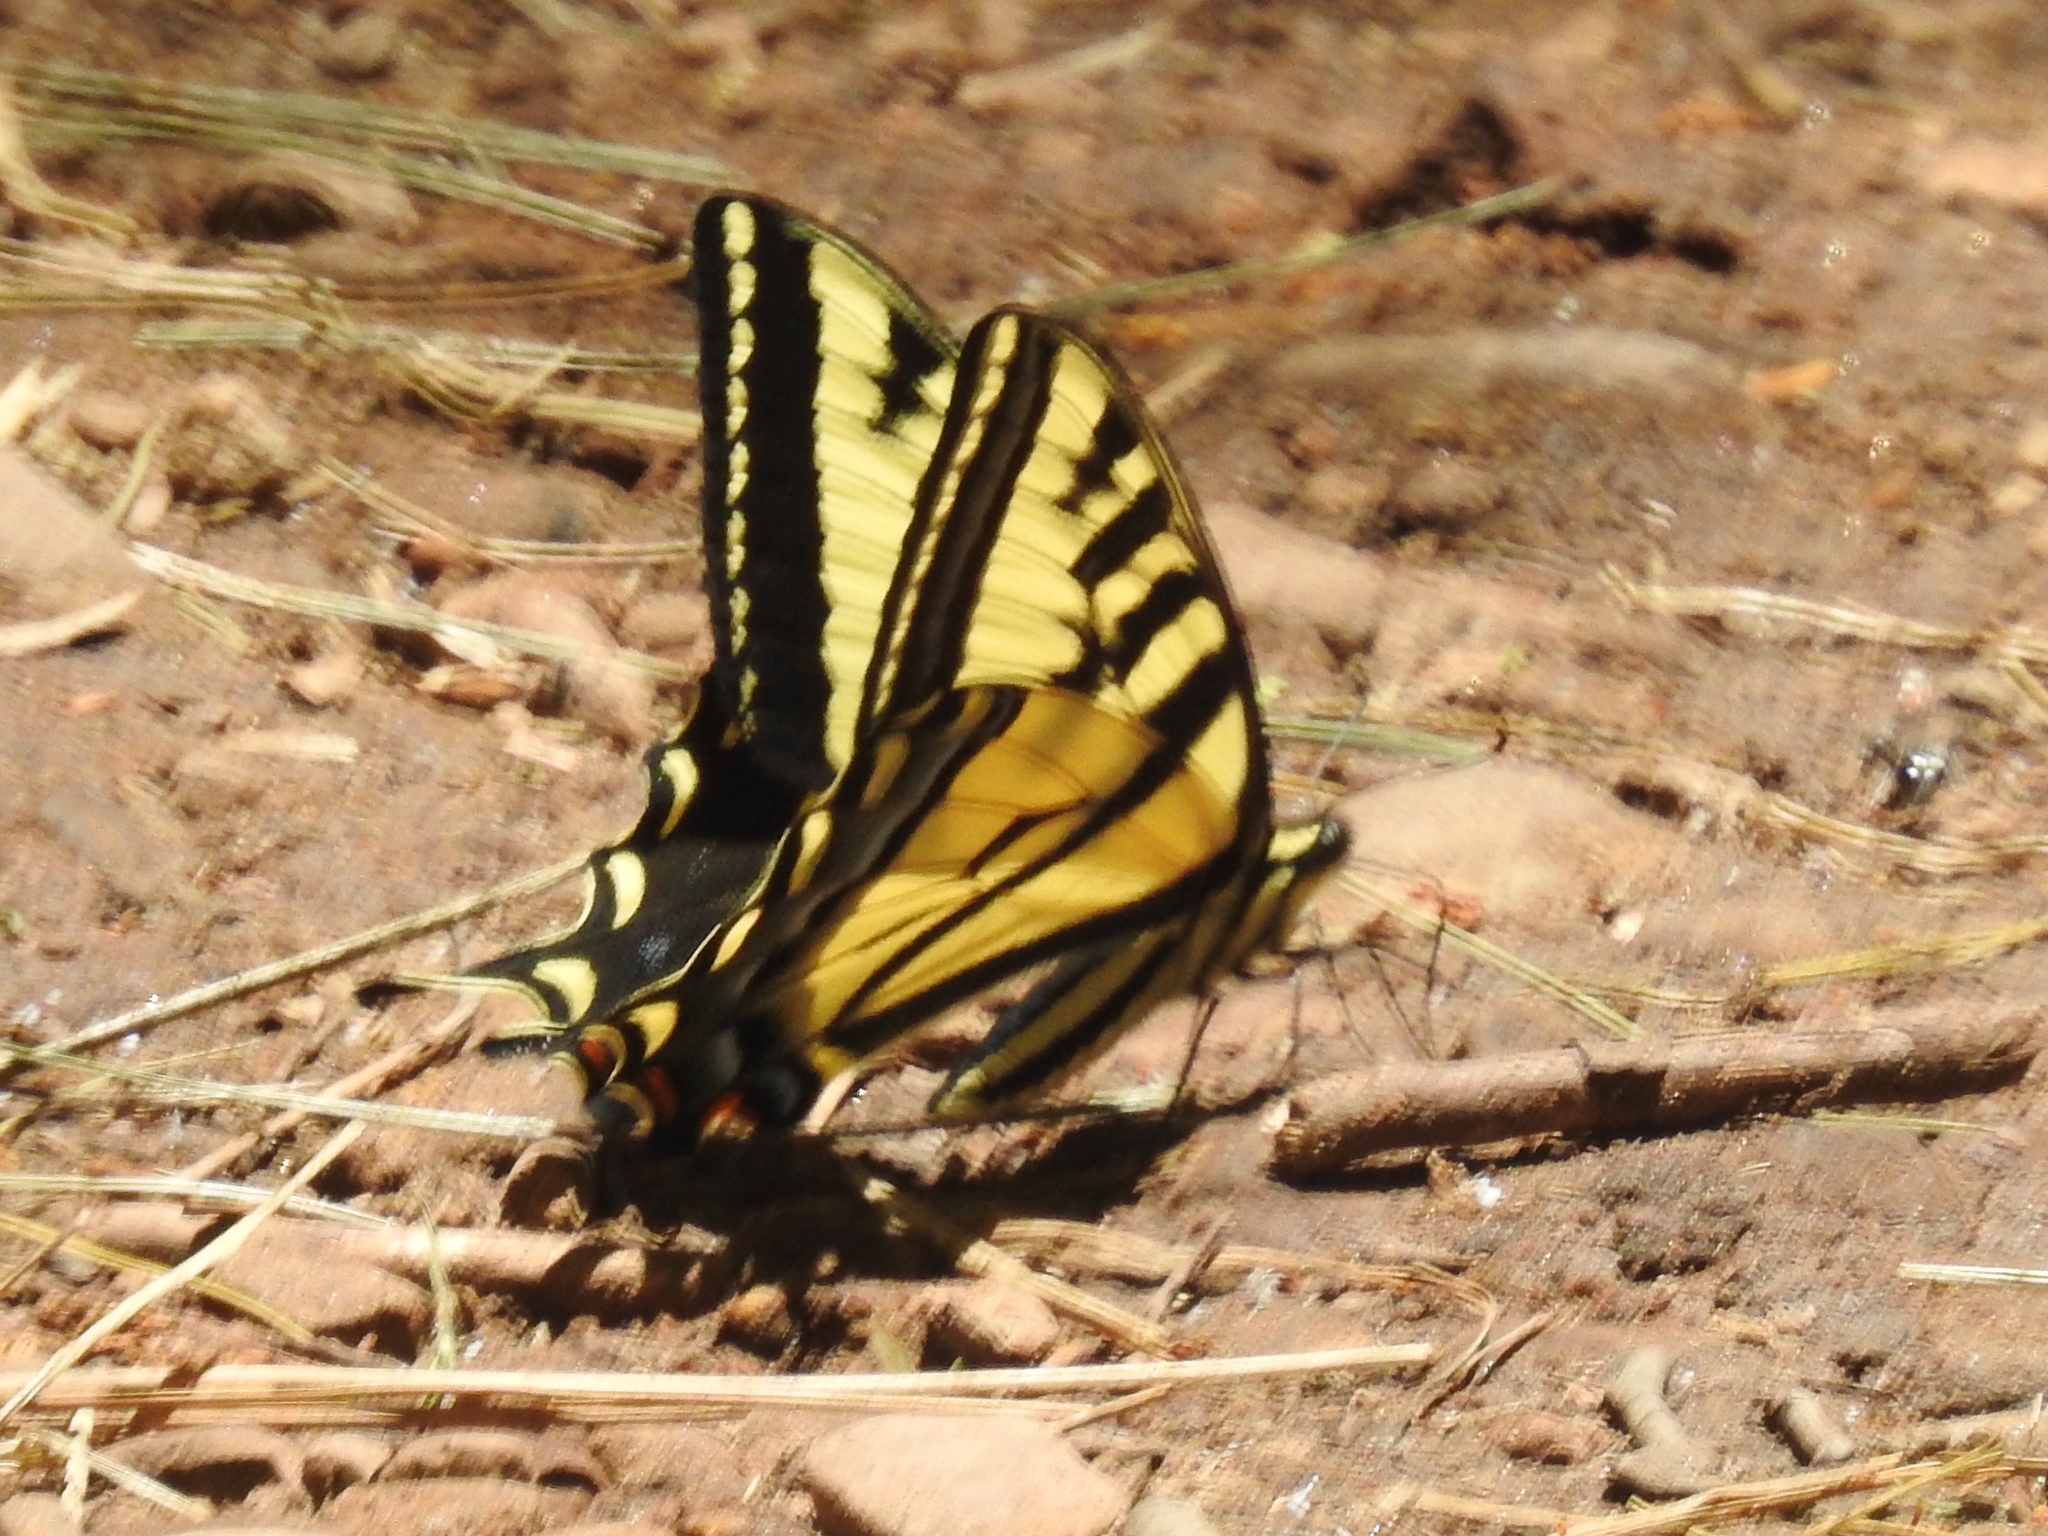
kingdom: Animalia
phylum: Arthropoda
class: Insecta
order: Lepidoptera
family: Papilionidae
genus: Papilio
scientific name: Papilio rutulus
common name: Western tiger swallowtail
